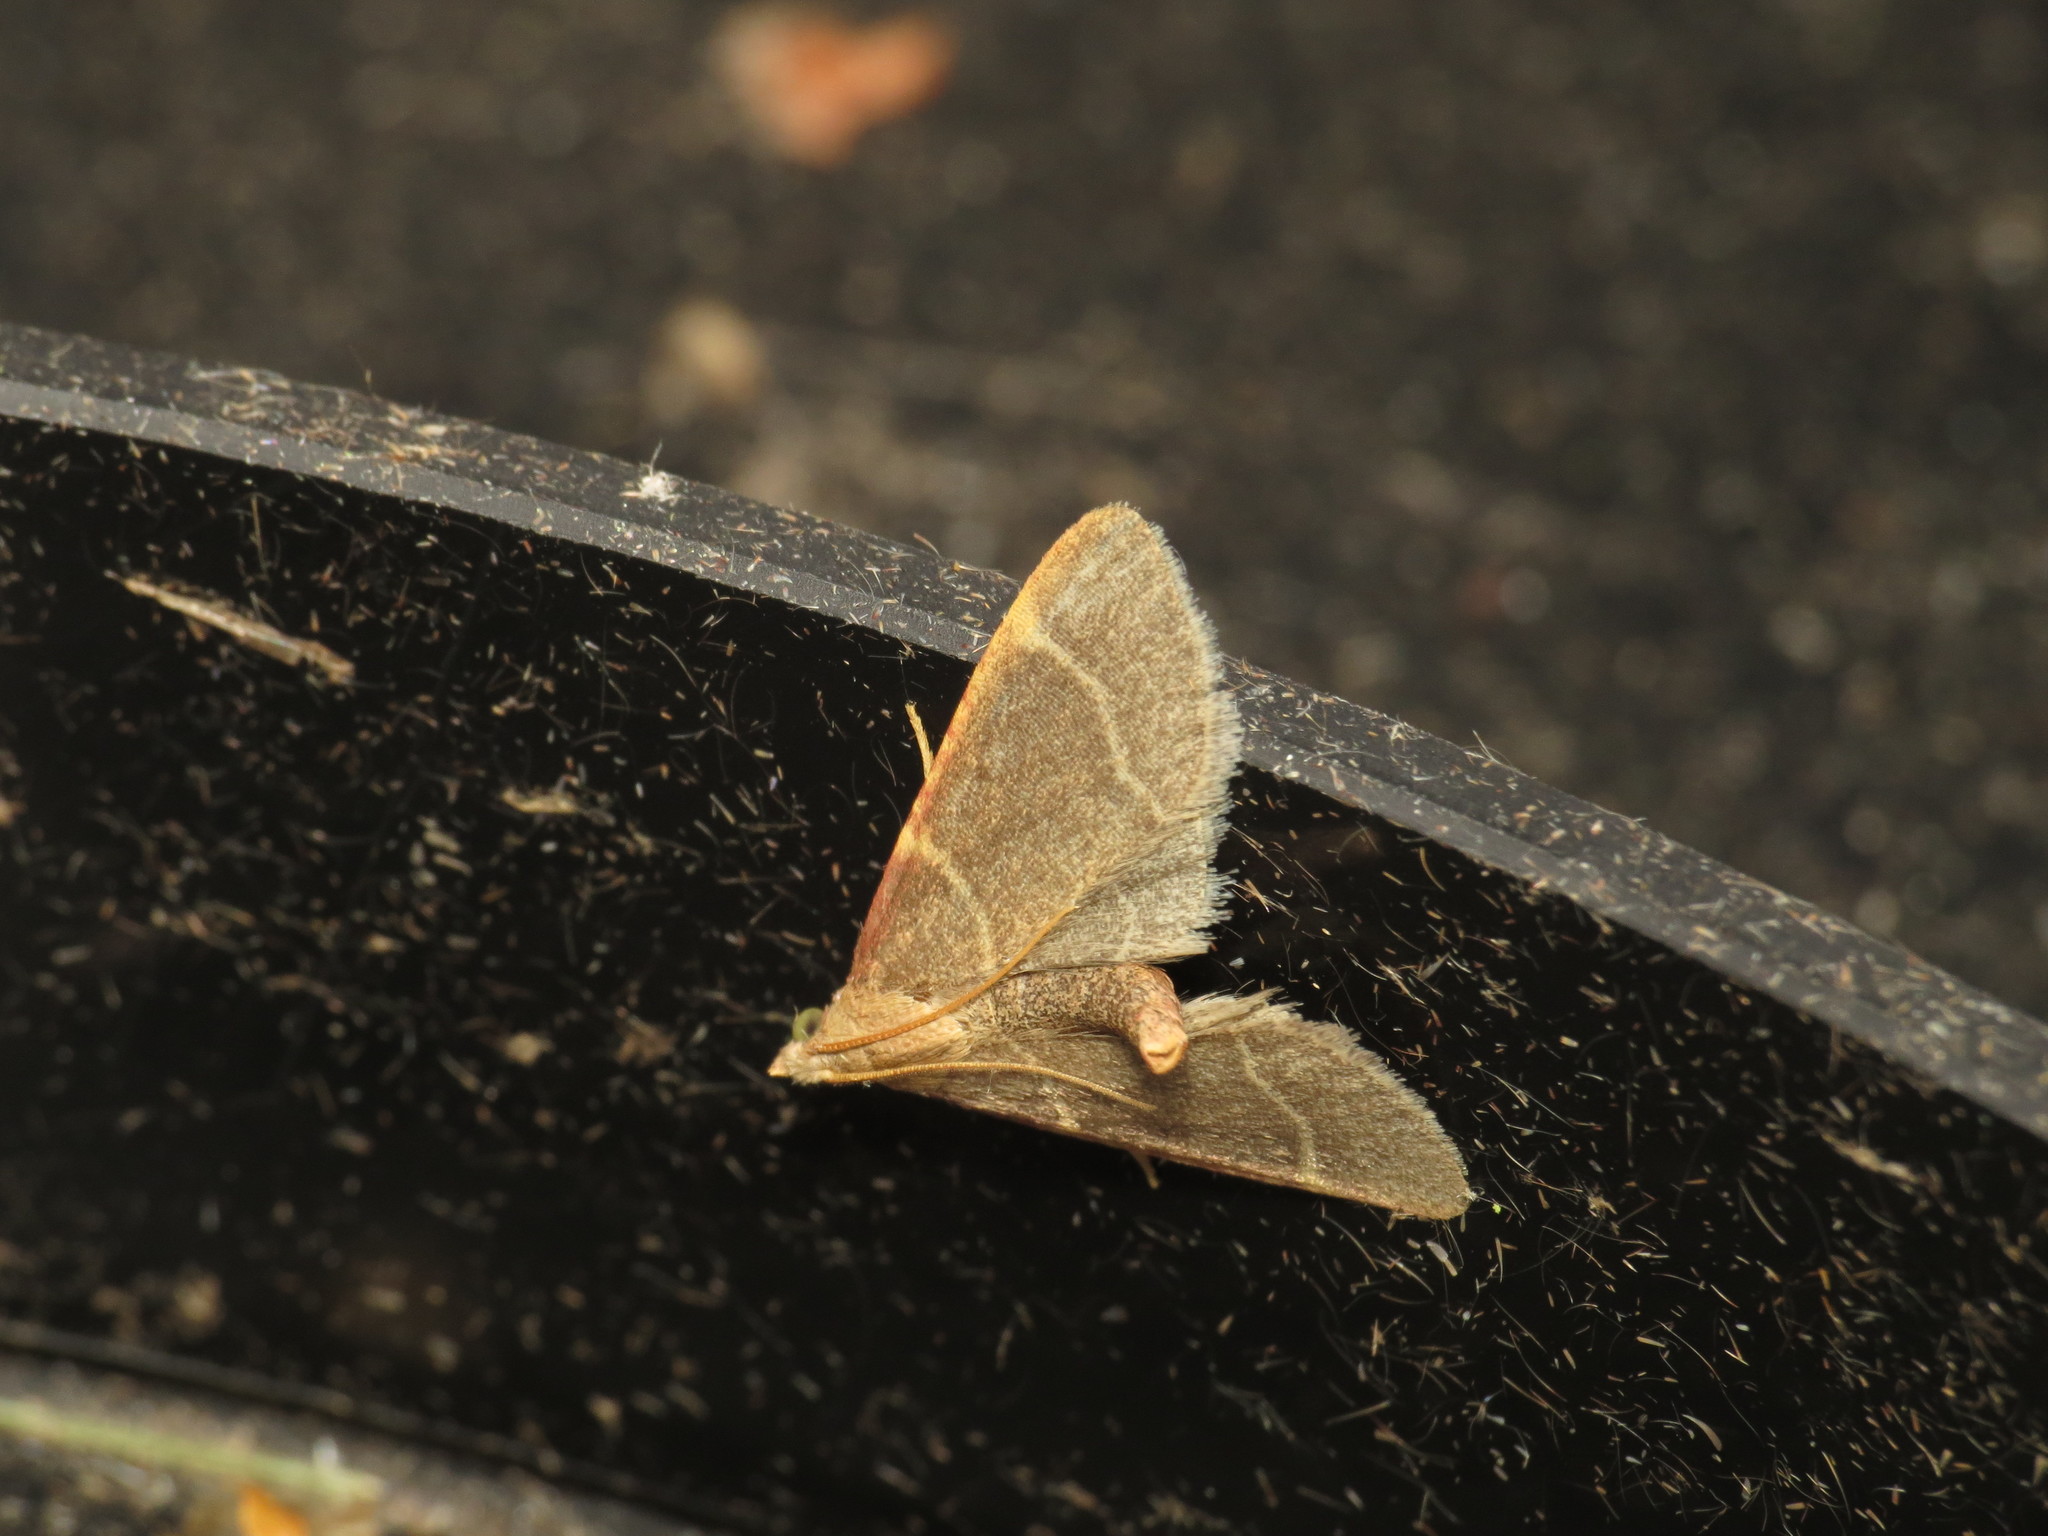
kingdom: Animalia
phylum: Arthropoda
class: Insecta
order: Lepidoptera
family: Pyralidae
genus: Hypsopygia
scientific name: Hypsopygia glaucinalis
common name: Double-striped tabby
